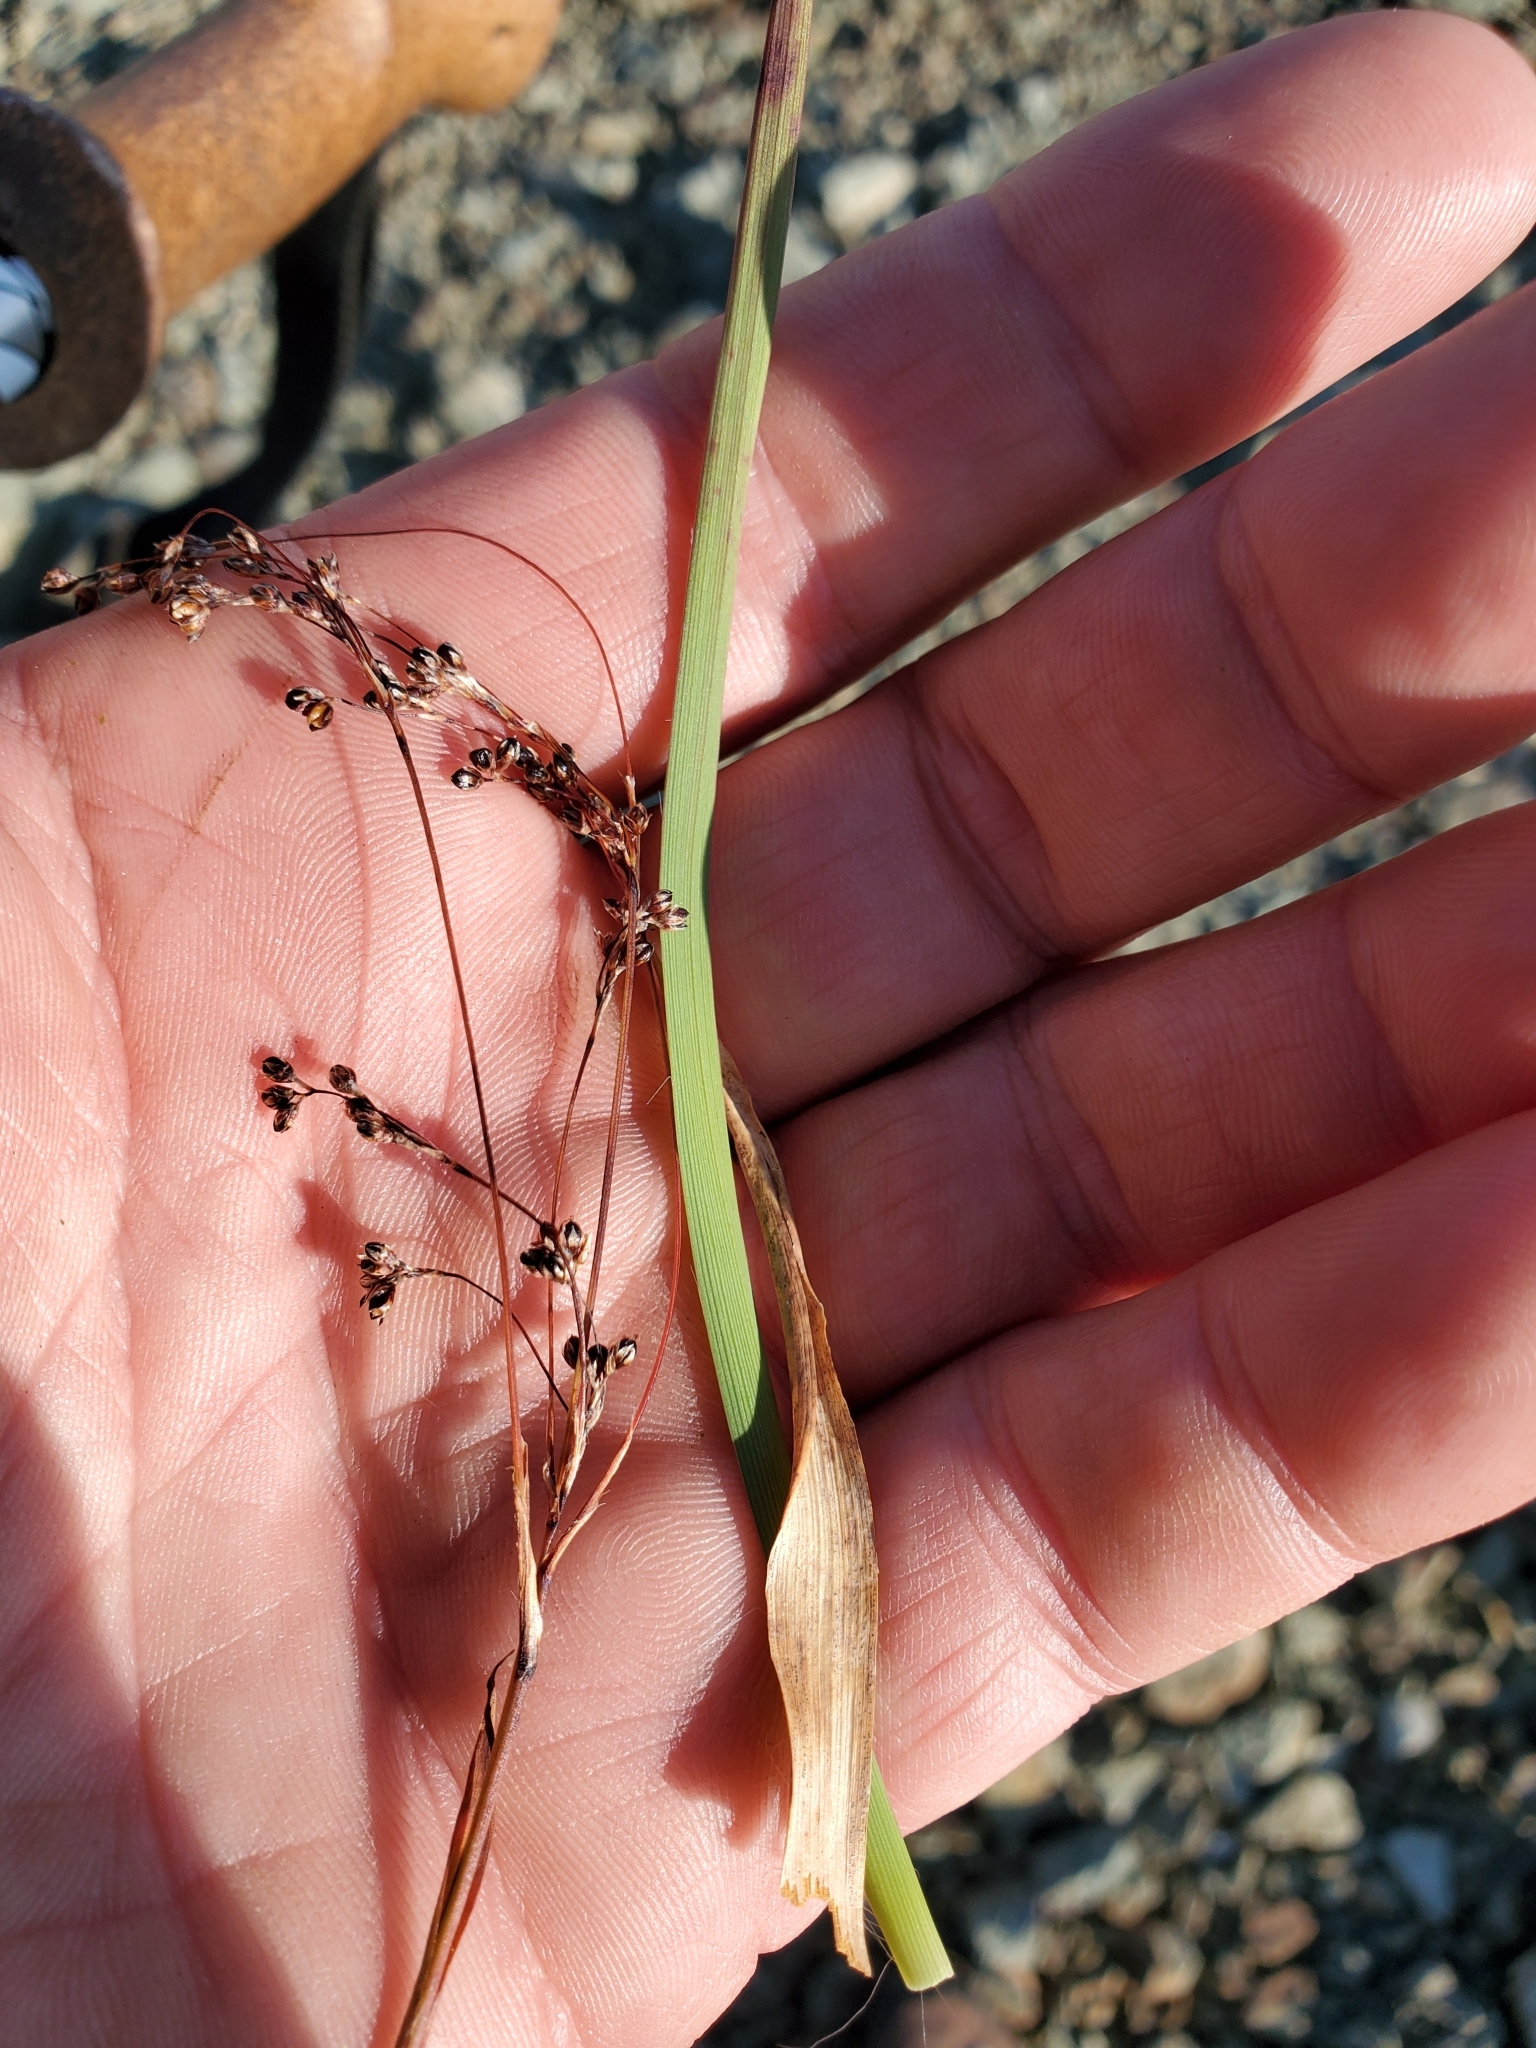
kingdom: Plantae
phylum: Tracheophyta
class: Liliopsida
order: Poales
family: Juncaceae
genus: Luzula
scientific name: Luzula parviflora
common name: Millet woodrush
